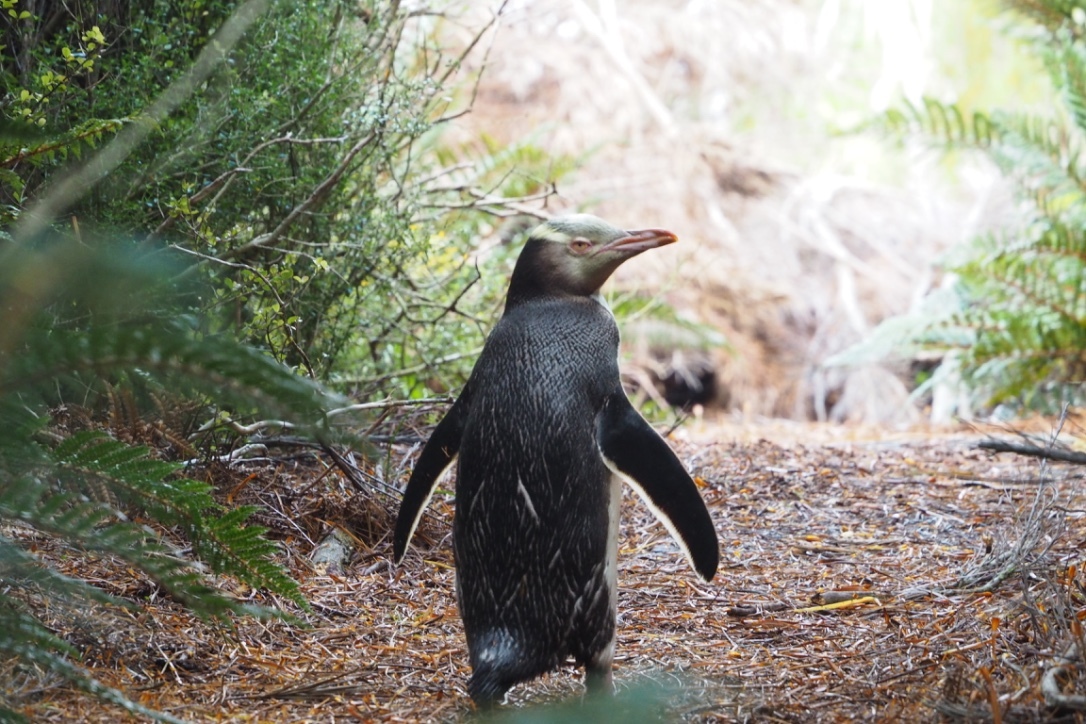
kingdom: Animalia
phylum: Chordata
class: Aves
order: Sphenisciformes
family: Spheniscidae
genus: Megadyptes
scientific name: Megadyptes antipodes
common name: Yellow-eyed penguin
